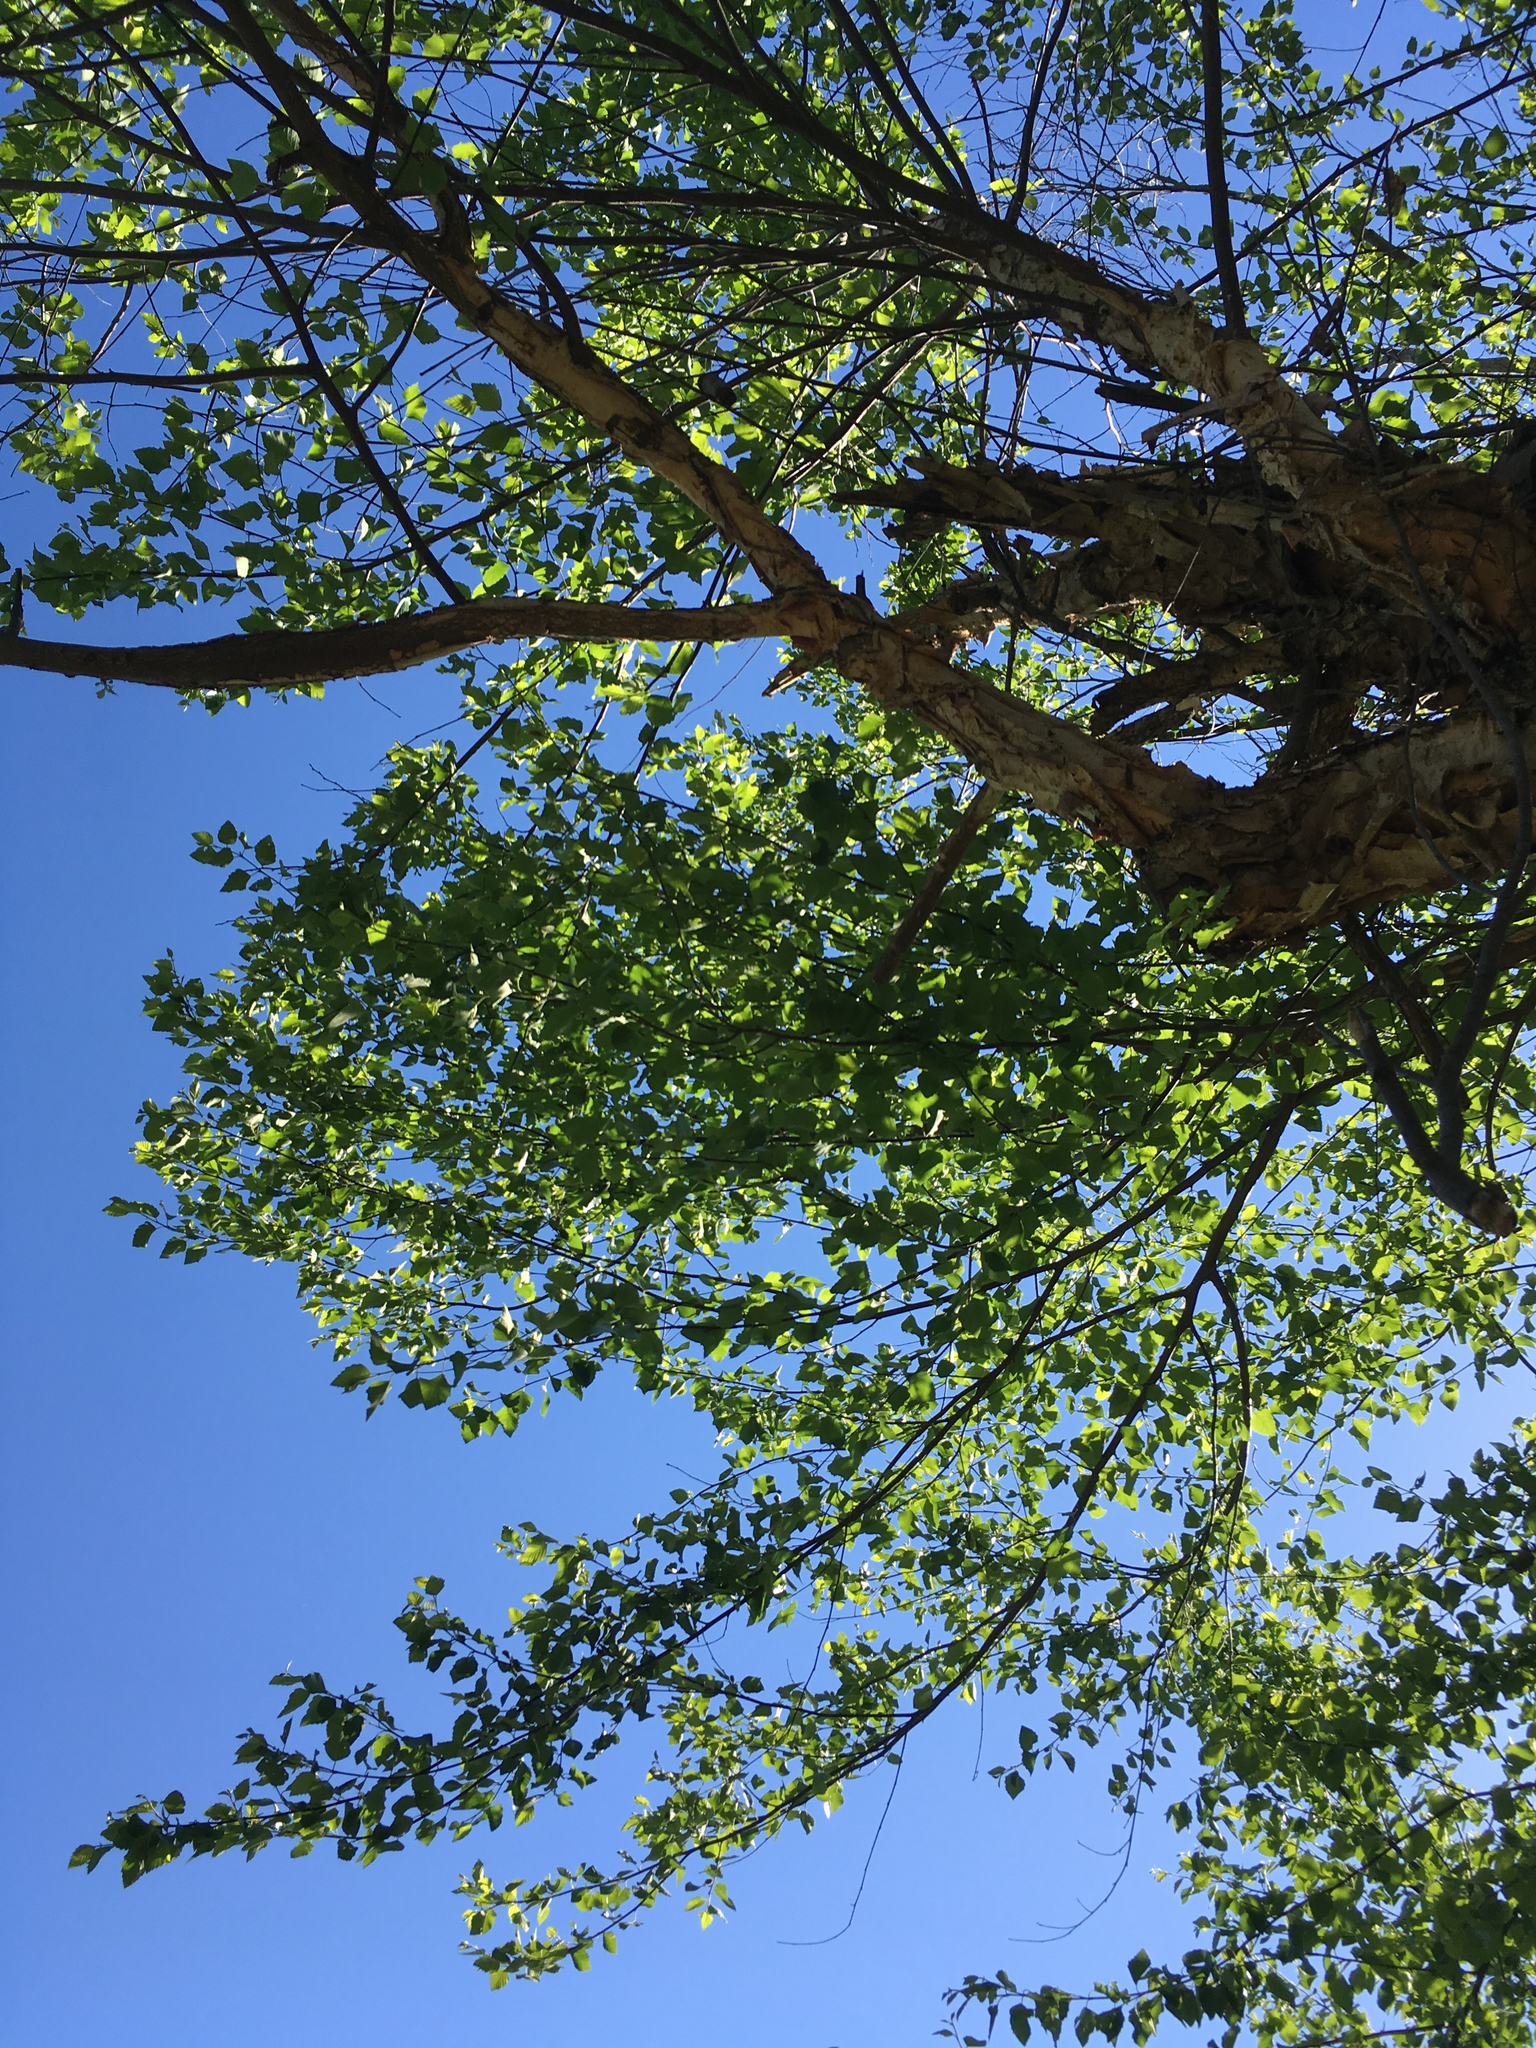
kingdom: Plantae
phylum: Tracheophyta
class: Magnoliopsida
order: Fagales
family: Betulaceae
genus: Betula
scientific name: Betula nigra
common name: Black birch
